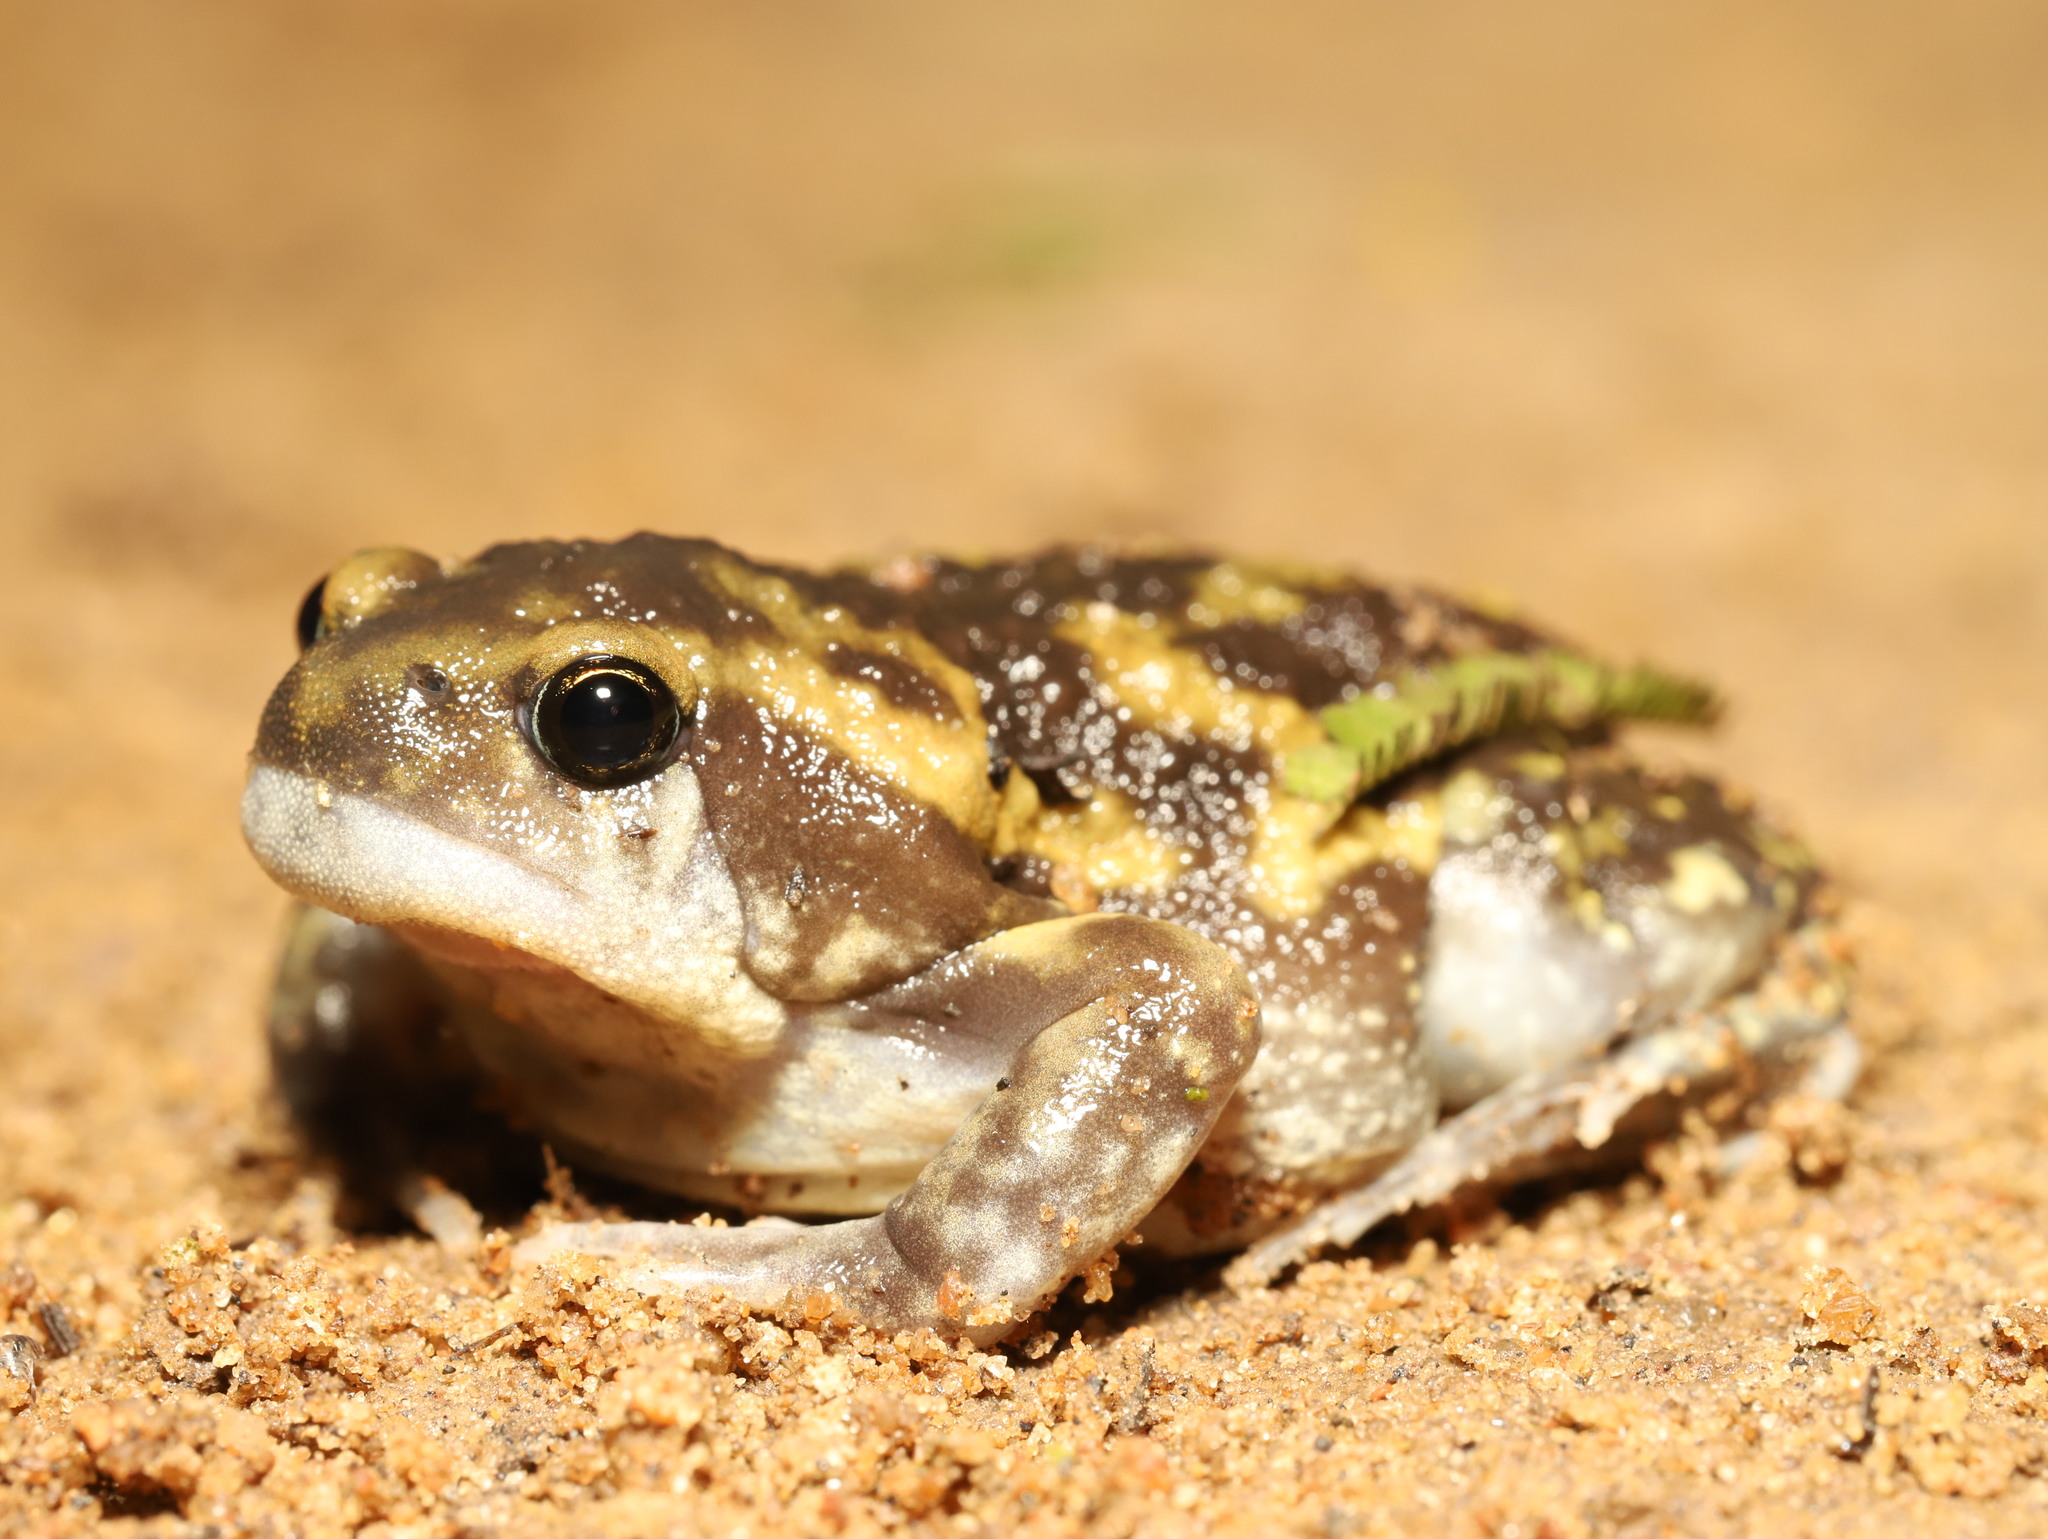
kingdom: Animalia
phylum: Chordata
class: Amphibia
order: Anura
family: Microhylidae
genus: Uperodon
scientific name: Uperodon systoma
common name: Balloon frog
